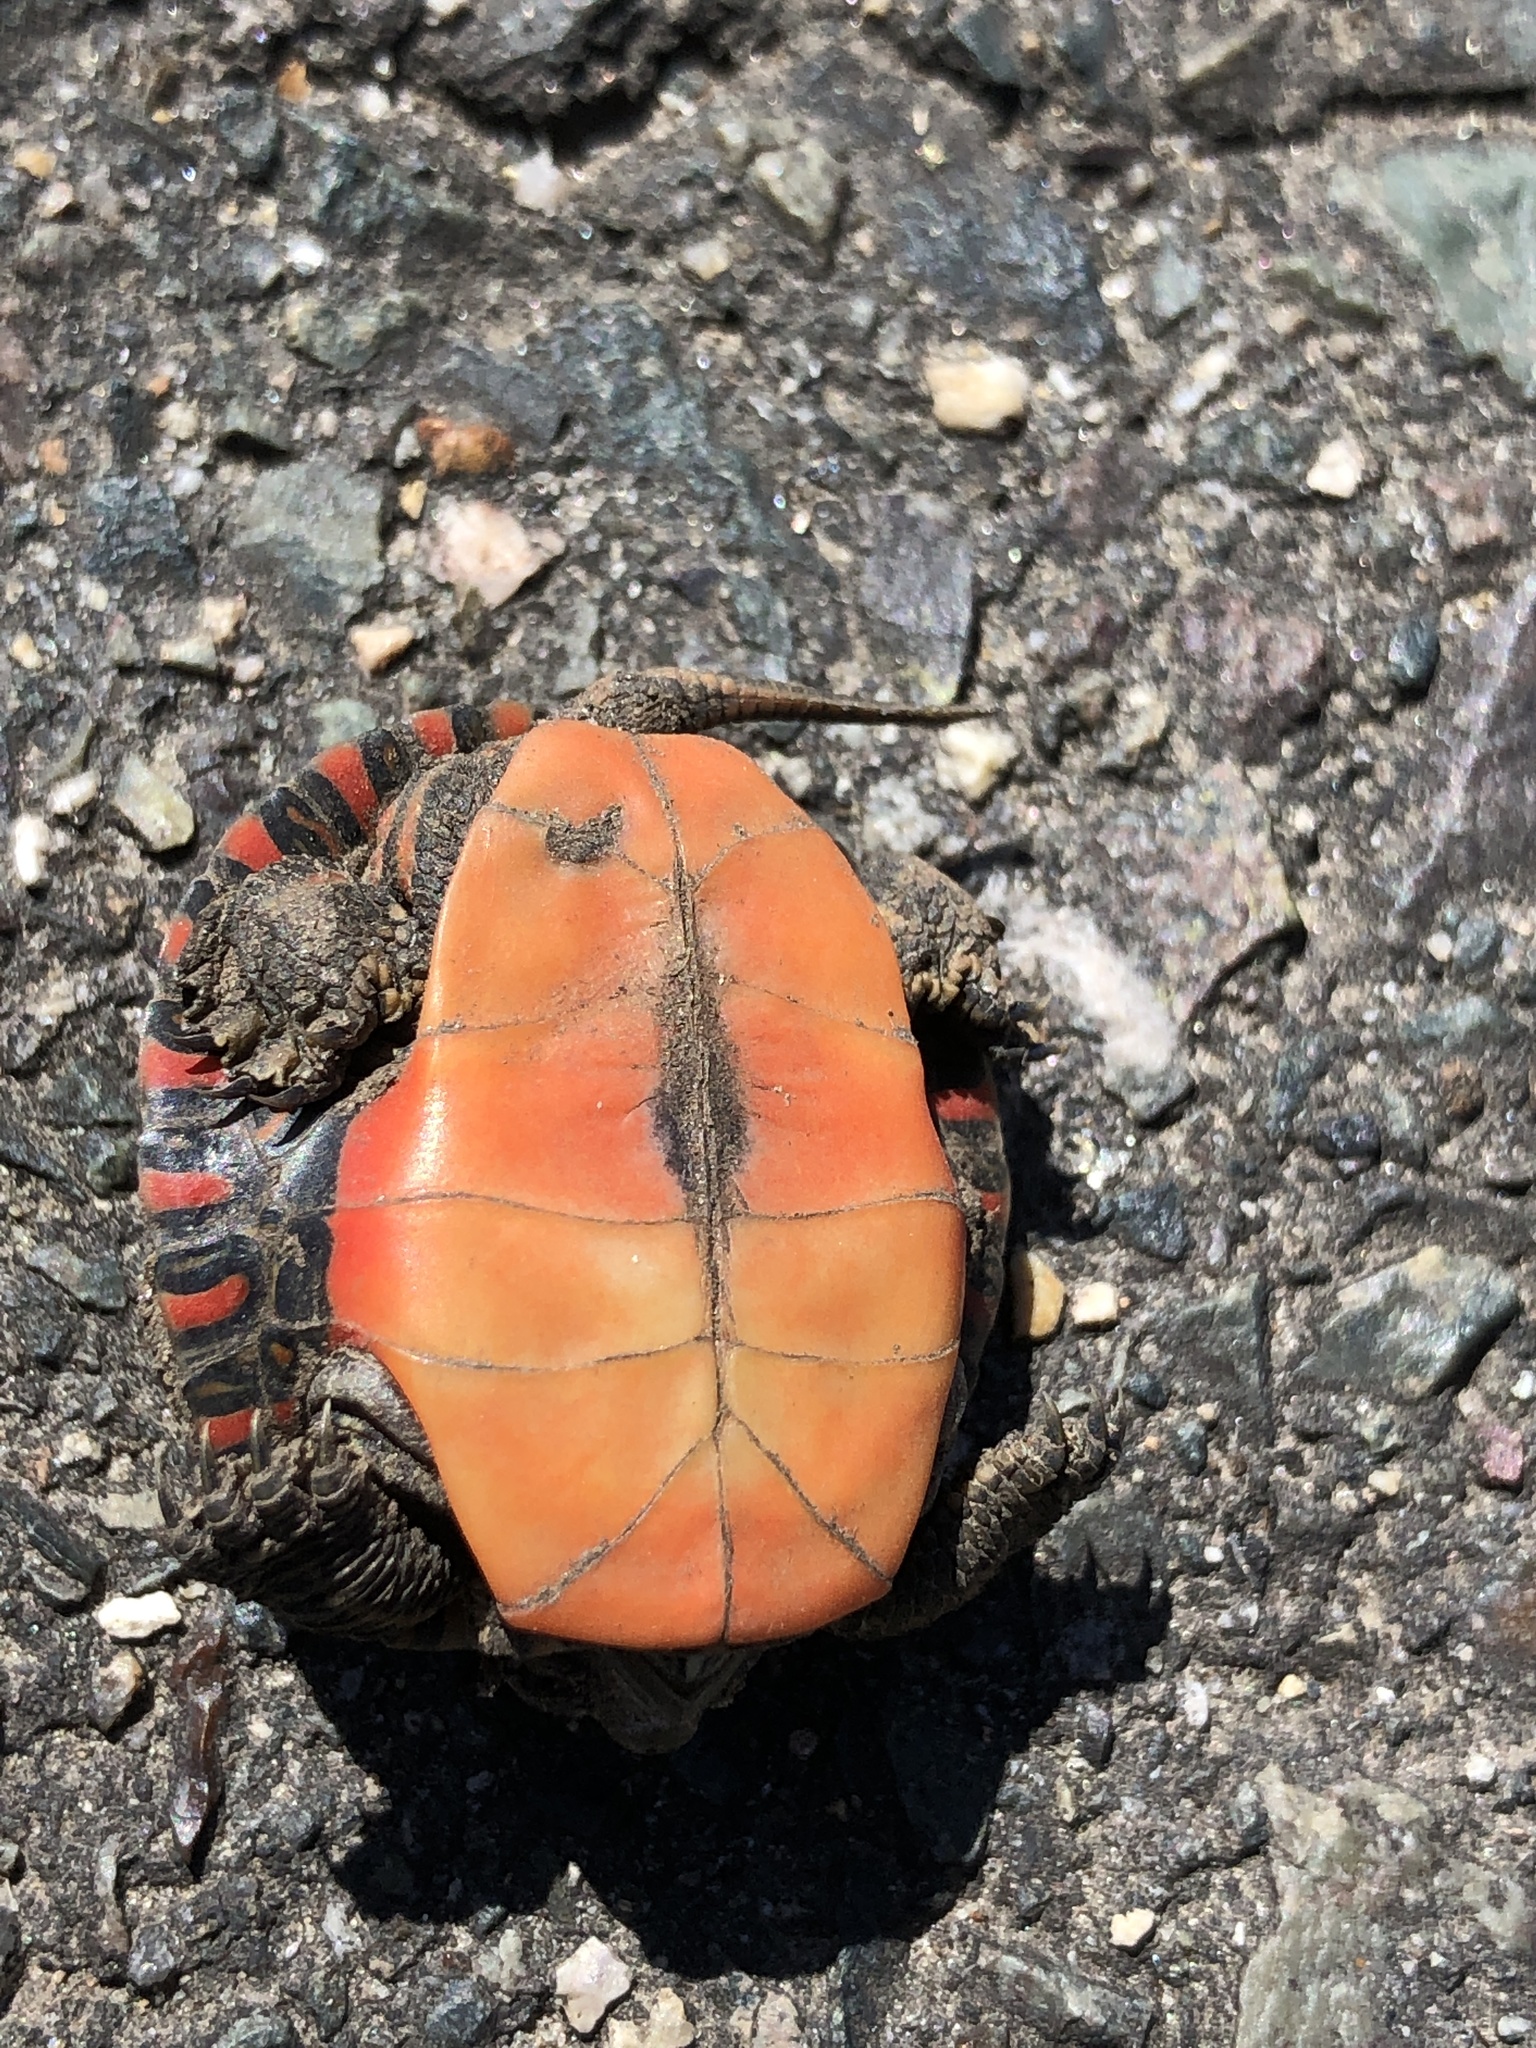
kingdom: Animalia
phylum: Chordata
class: Testudines
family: Emydidae
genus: Chrysemys
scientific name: Chrysemys picta
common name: Painted turtle
